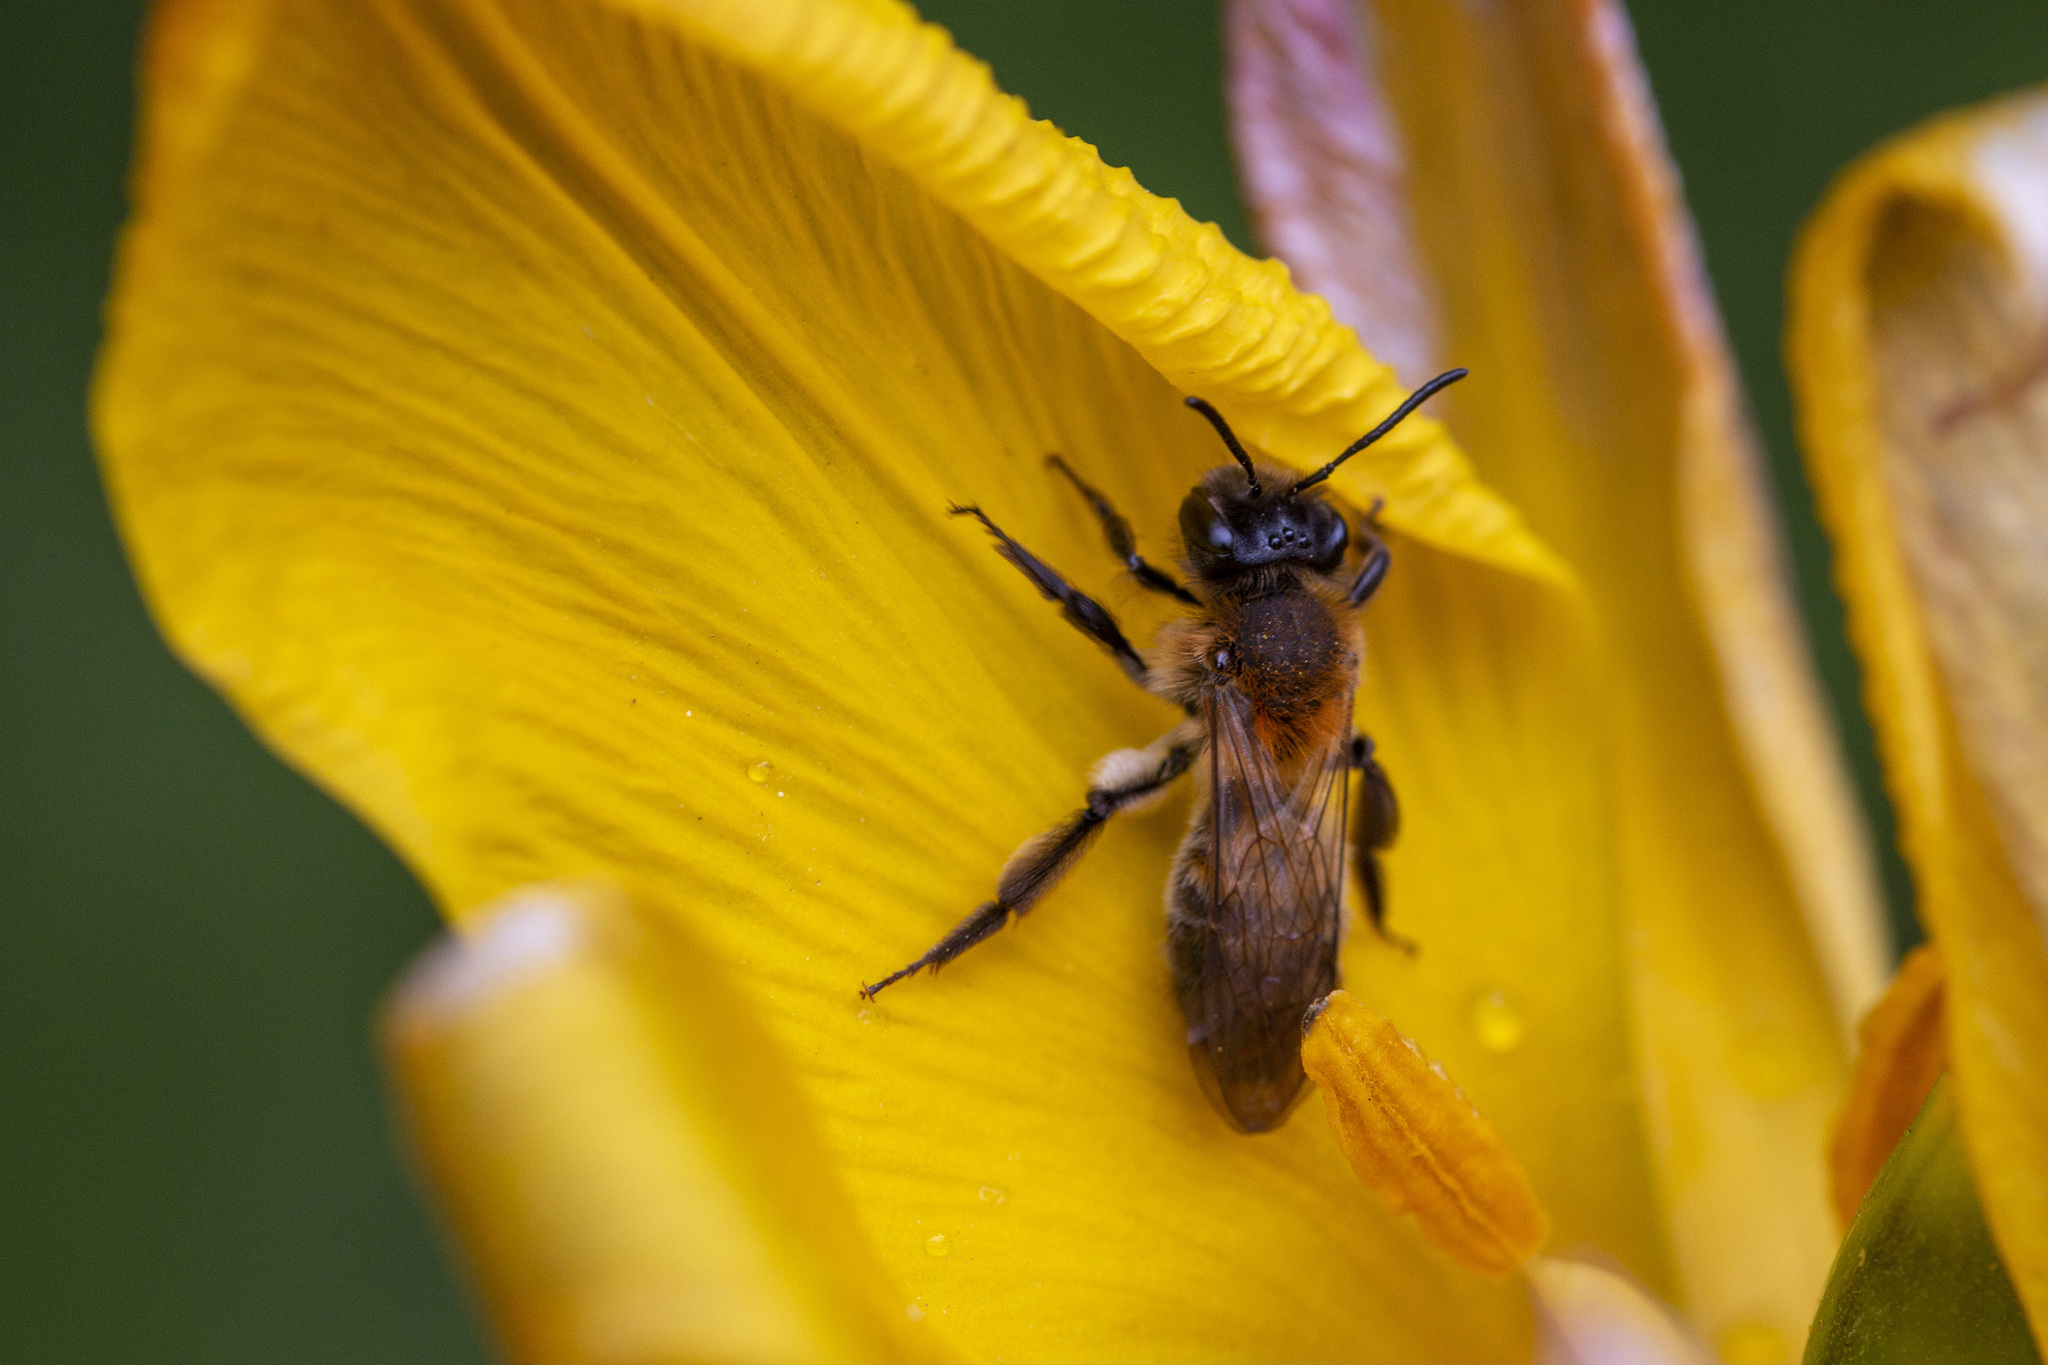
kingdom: Animalia
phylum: Arthropoda
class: Insecta
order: Hymenoptera
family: Andrenidae
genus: Andrena
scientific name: Andrena synadelpha
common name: Broad-margined mining bee
